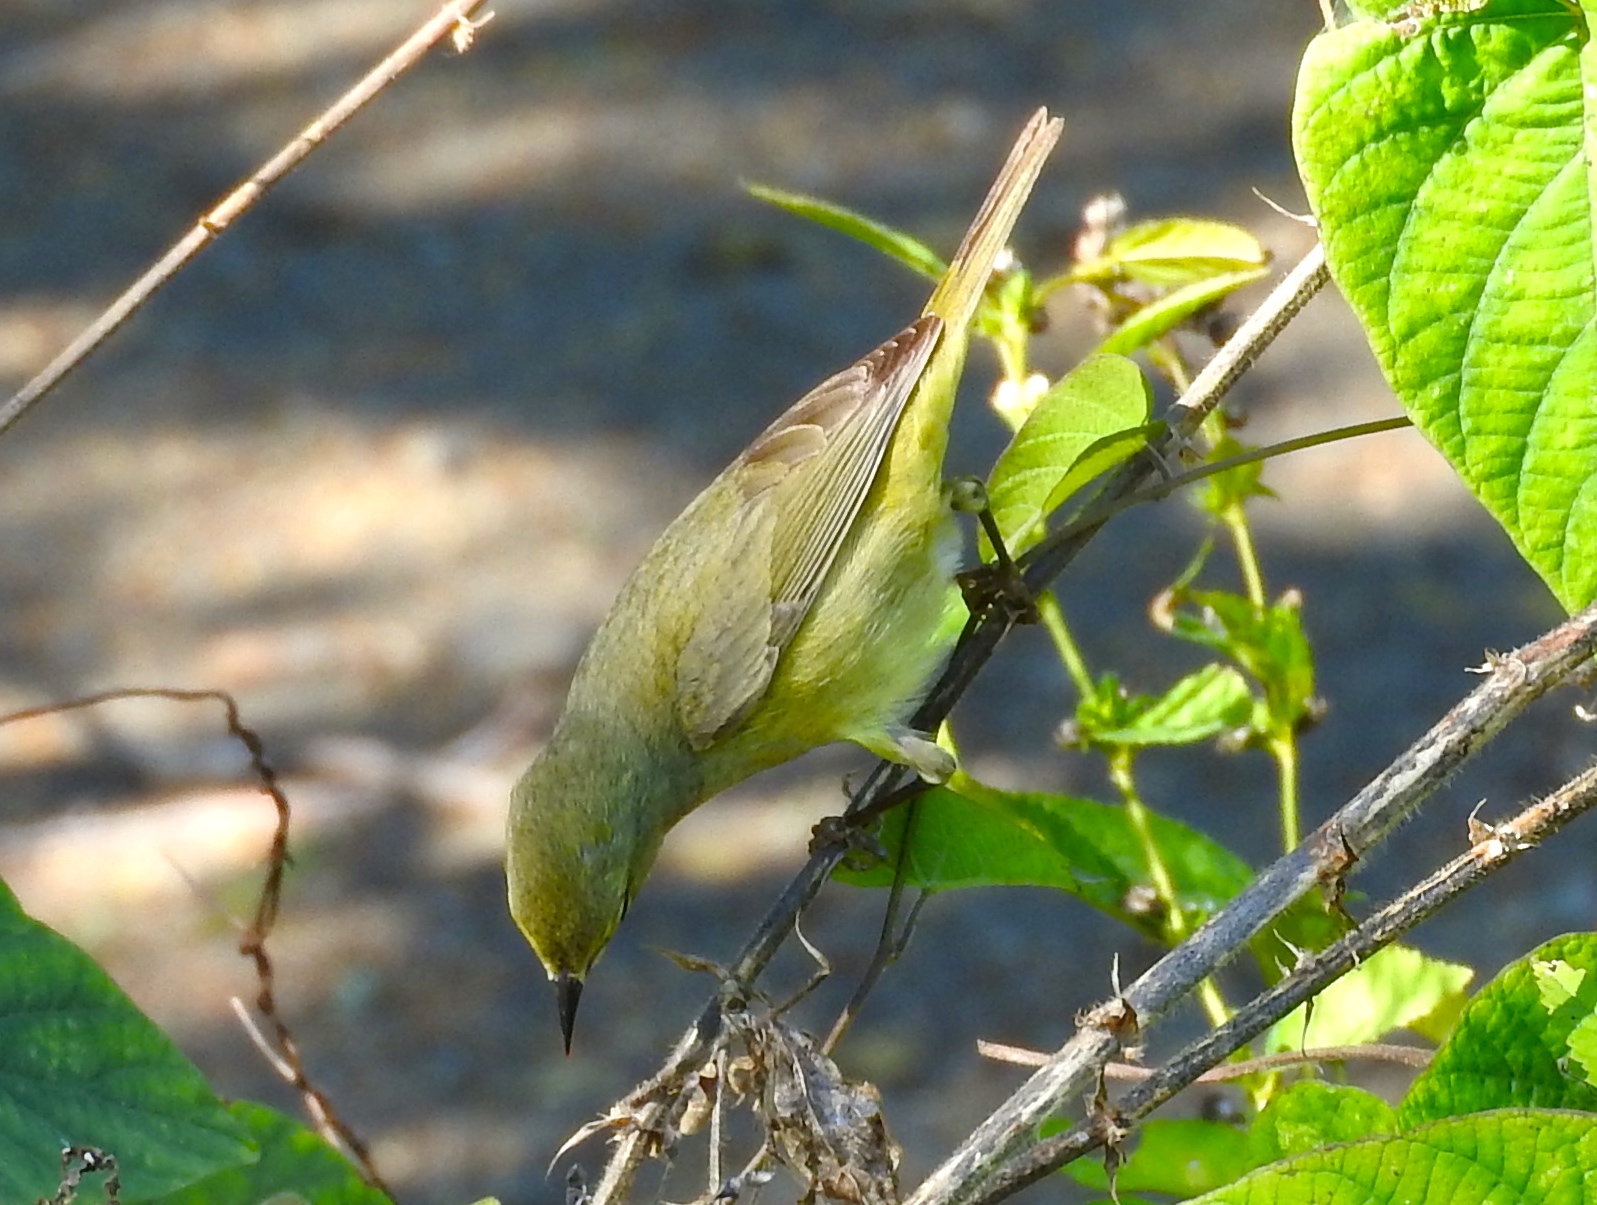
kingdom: Animalia
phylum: Chordata
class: Aves
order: Passeriformes
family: Parulidae
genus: Leiothlypis
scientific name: Leiothlypis celata
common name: Orange-crowned warbler
